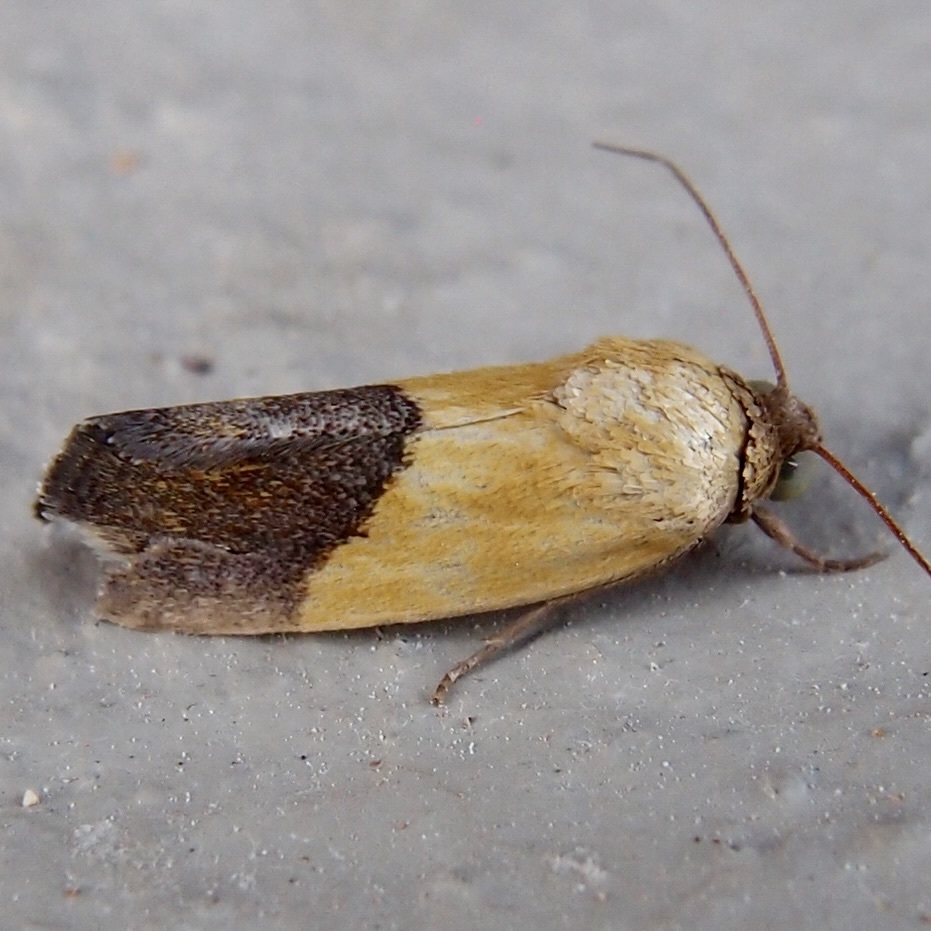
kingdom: Animalia
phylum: Arthropoda
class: Insecta
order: Lepidoptera
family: Noctuidae
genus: Acontia
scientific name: Acontia bicolorata
